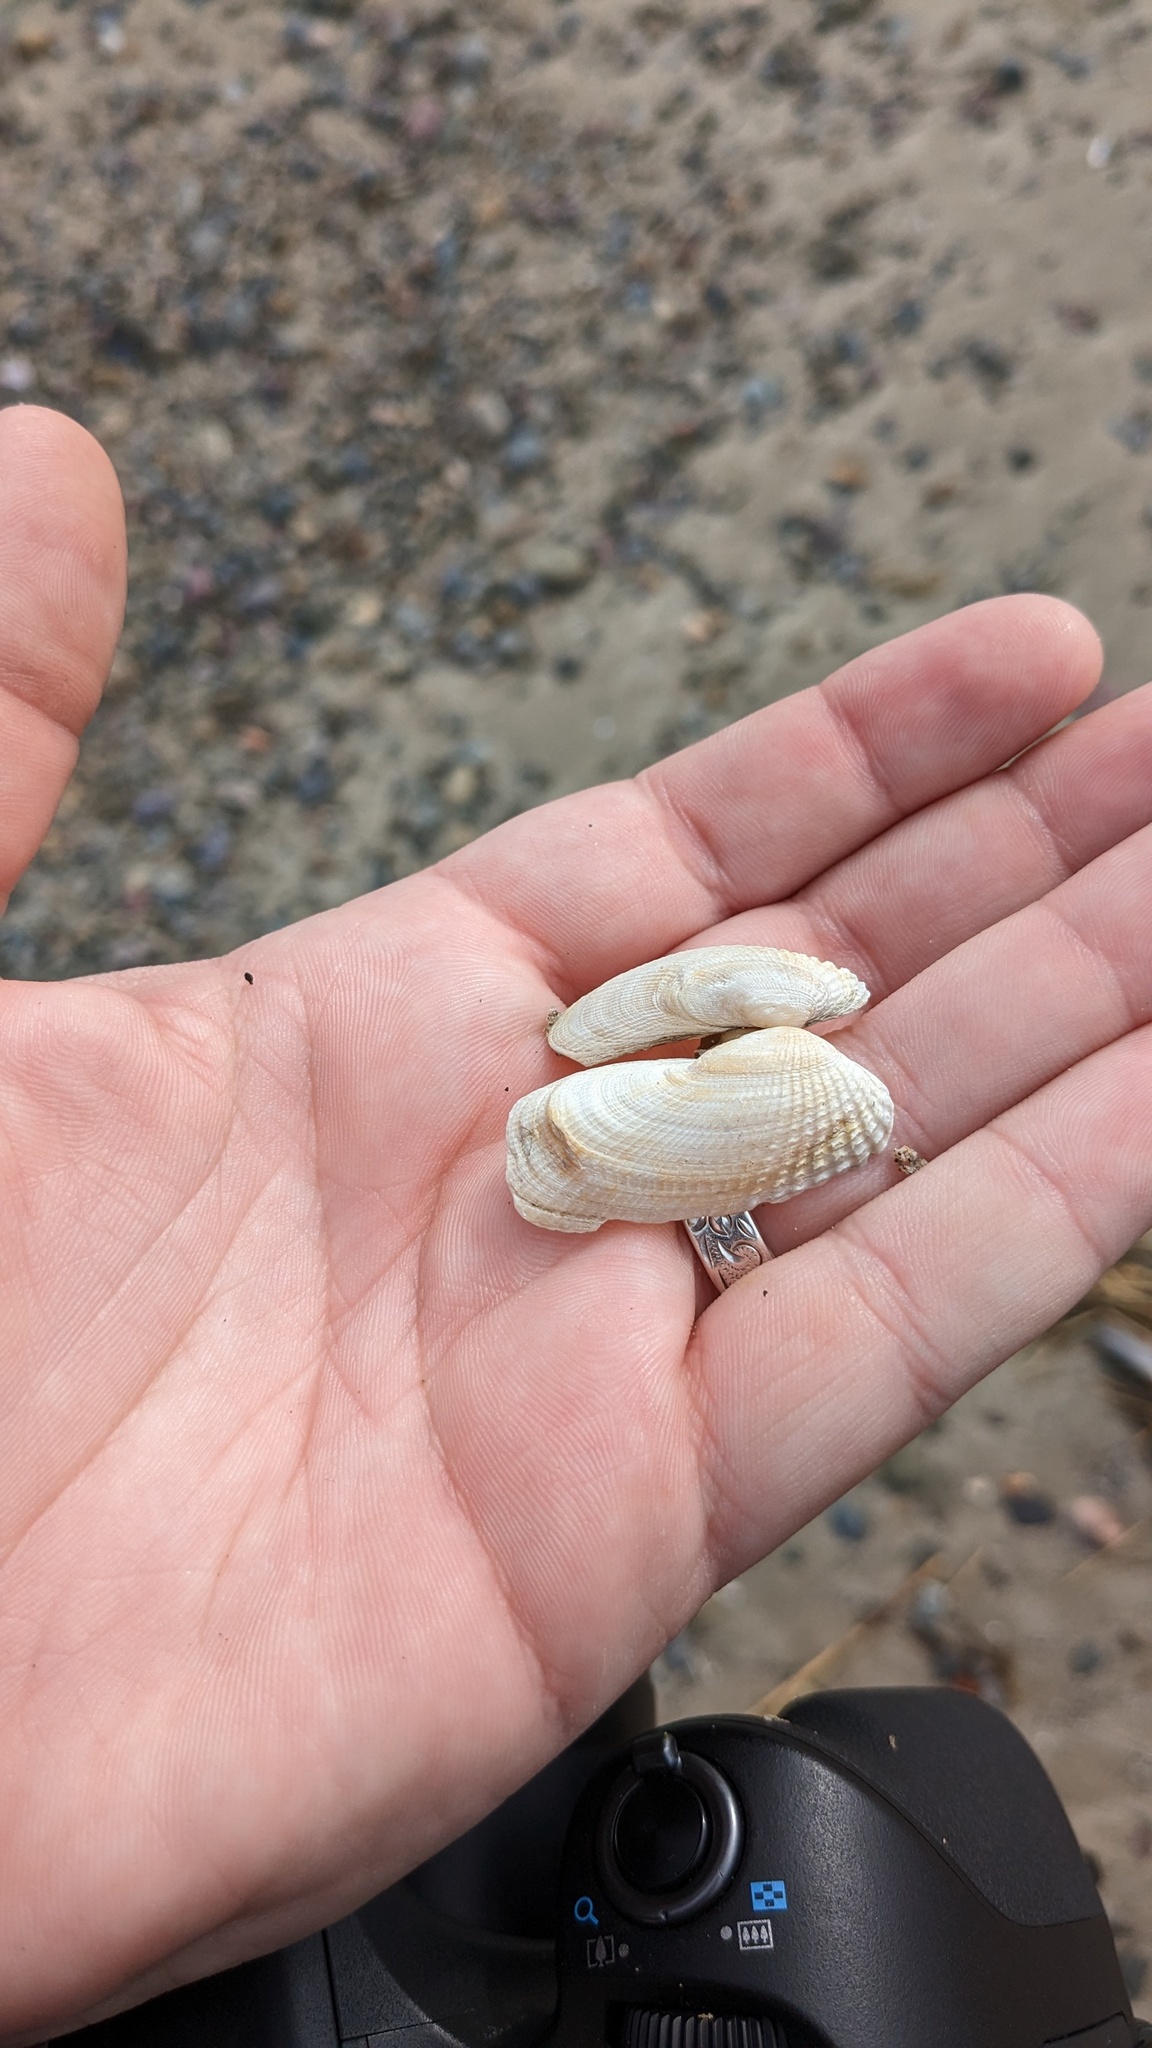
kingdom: Animalia
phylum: Mollusca
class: Bivalvia
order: Venerida
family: Veneridae
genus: Petricolaria
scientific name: Petricolaria pholadiformis
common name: American piddock
